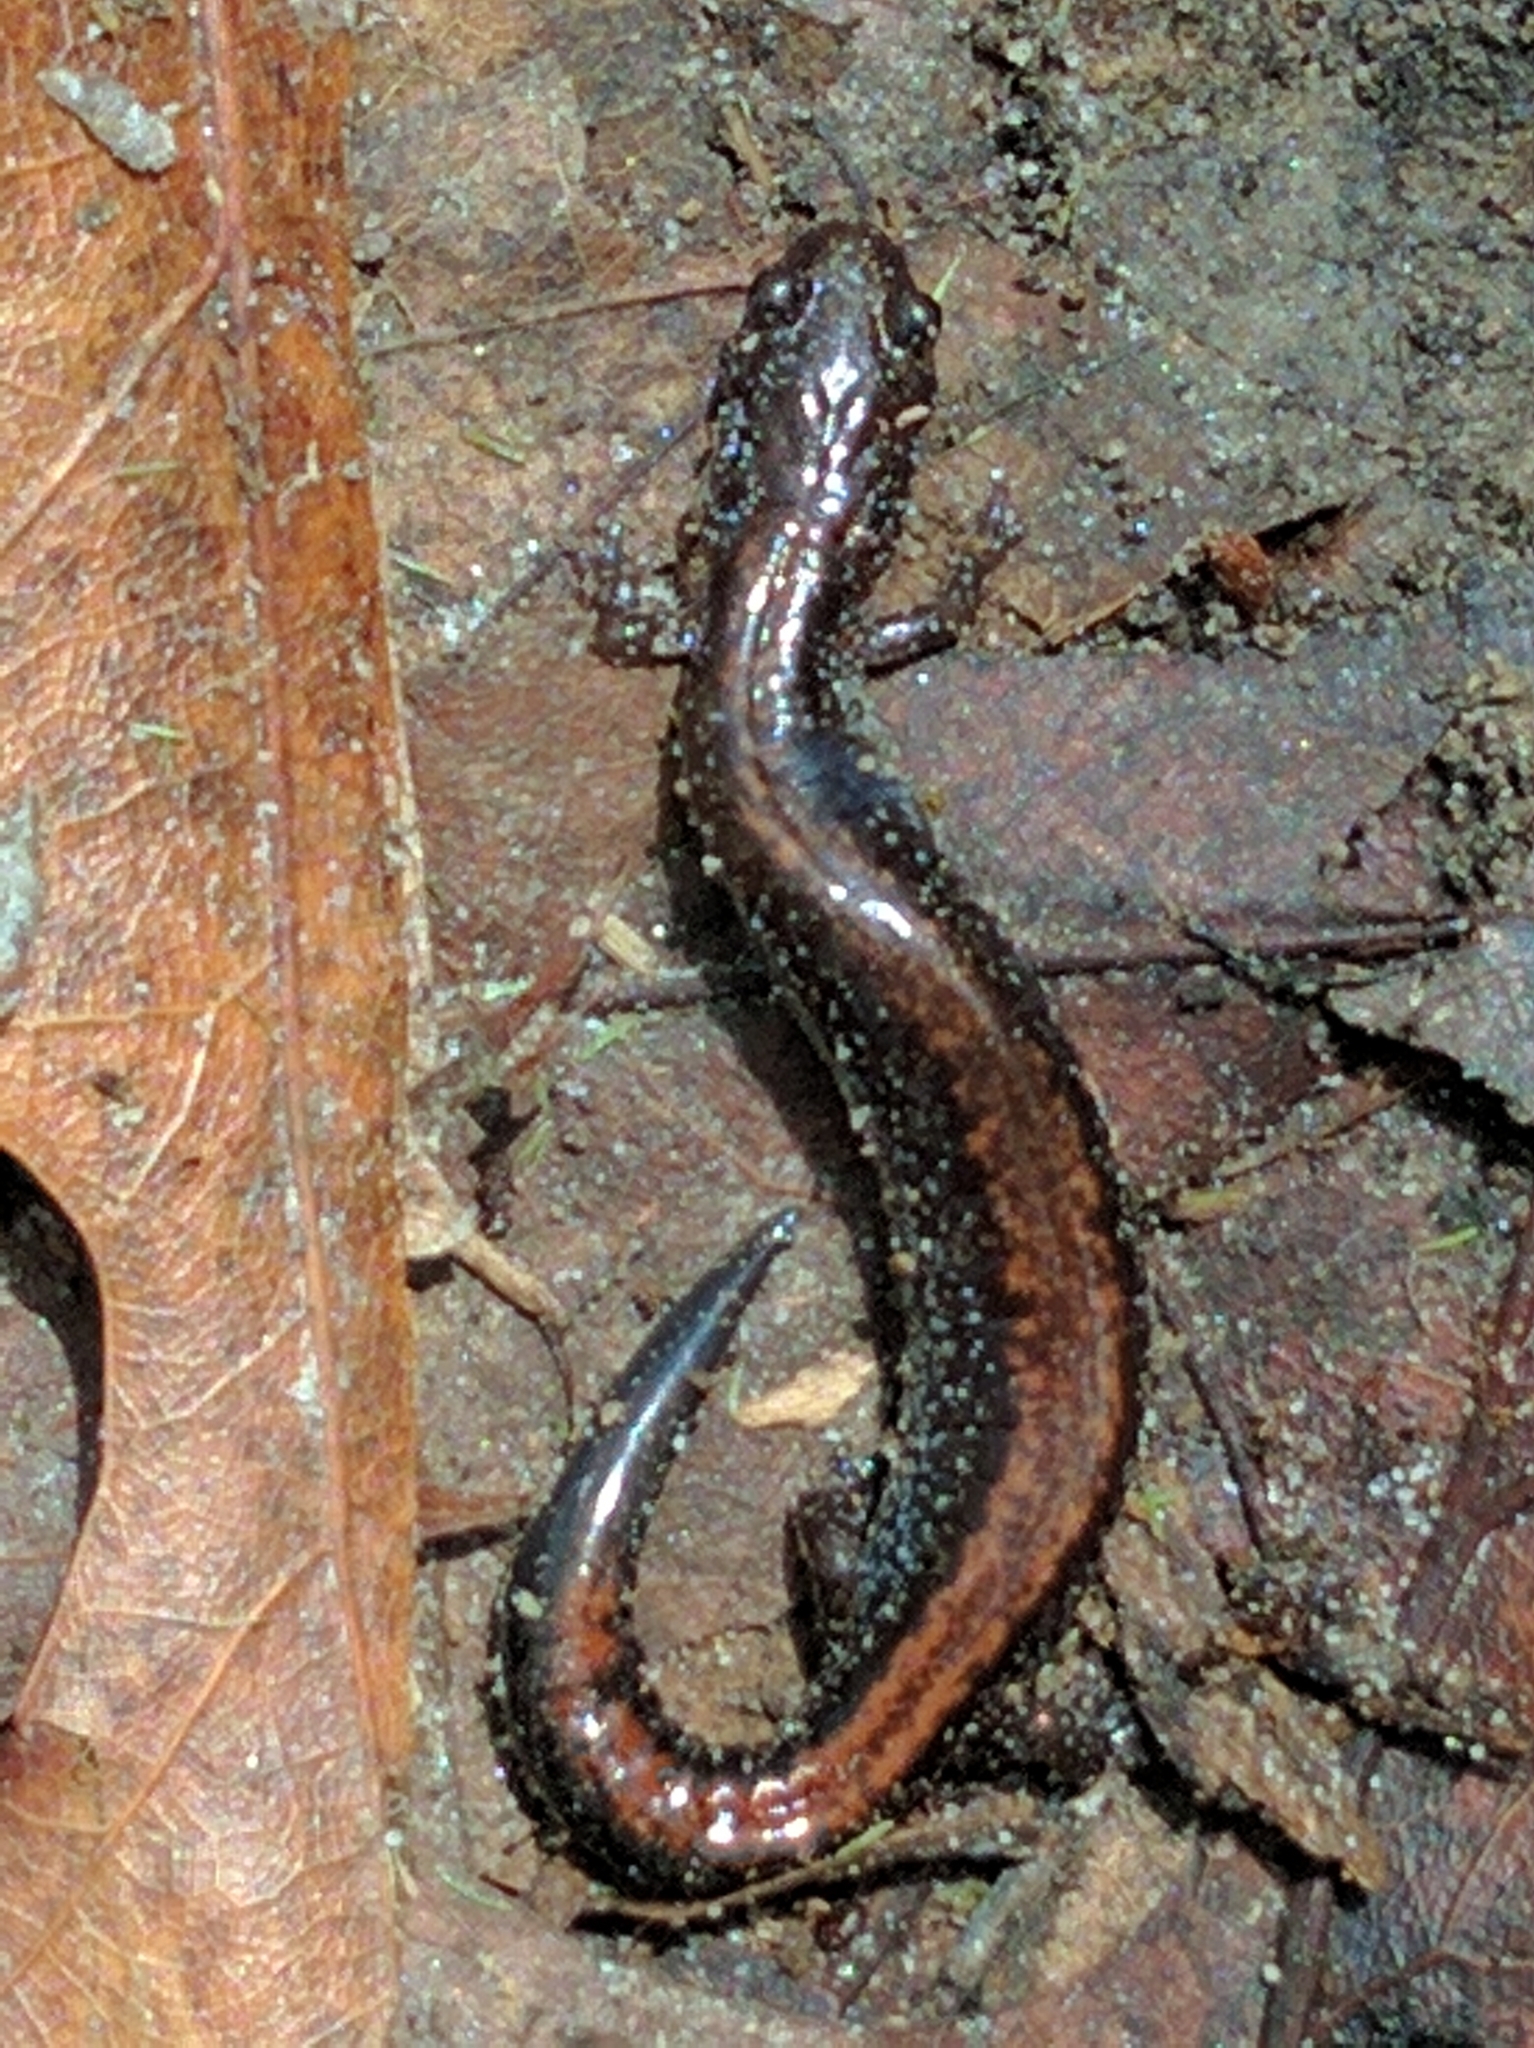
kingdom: Animalia
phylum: Chordata
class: Amphibia
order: Caudata
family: Plethodontidae
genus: Plethodon
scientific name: Plethodon cinereus
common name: Redback salamander
